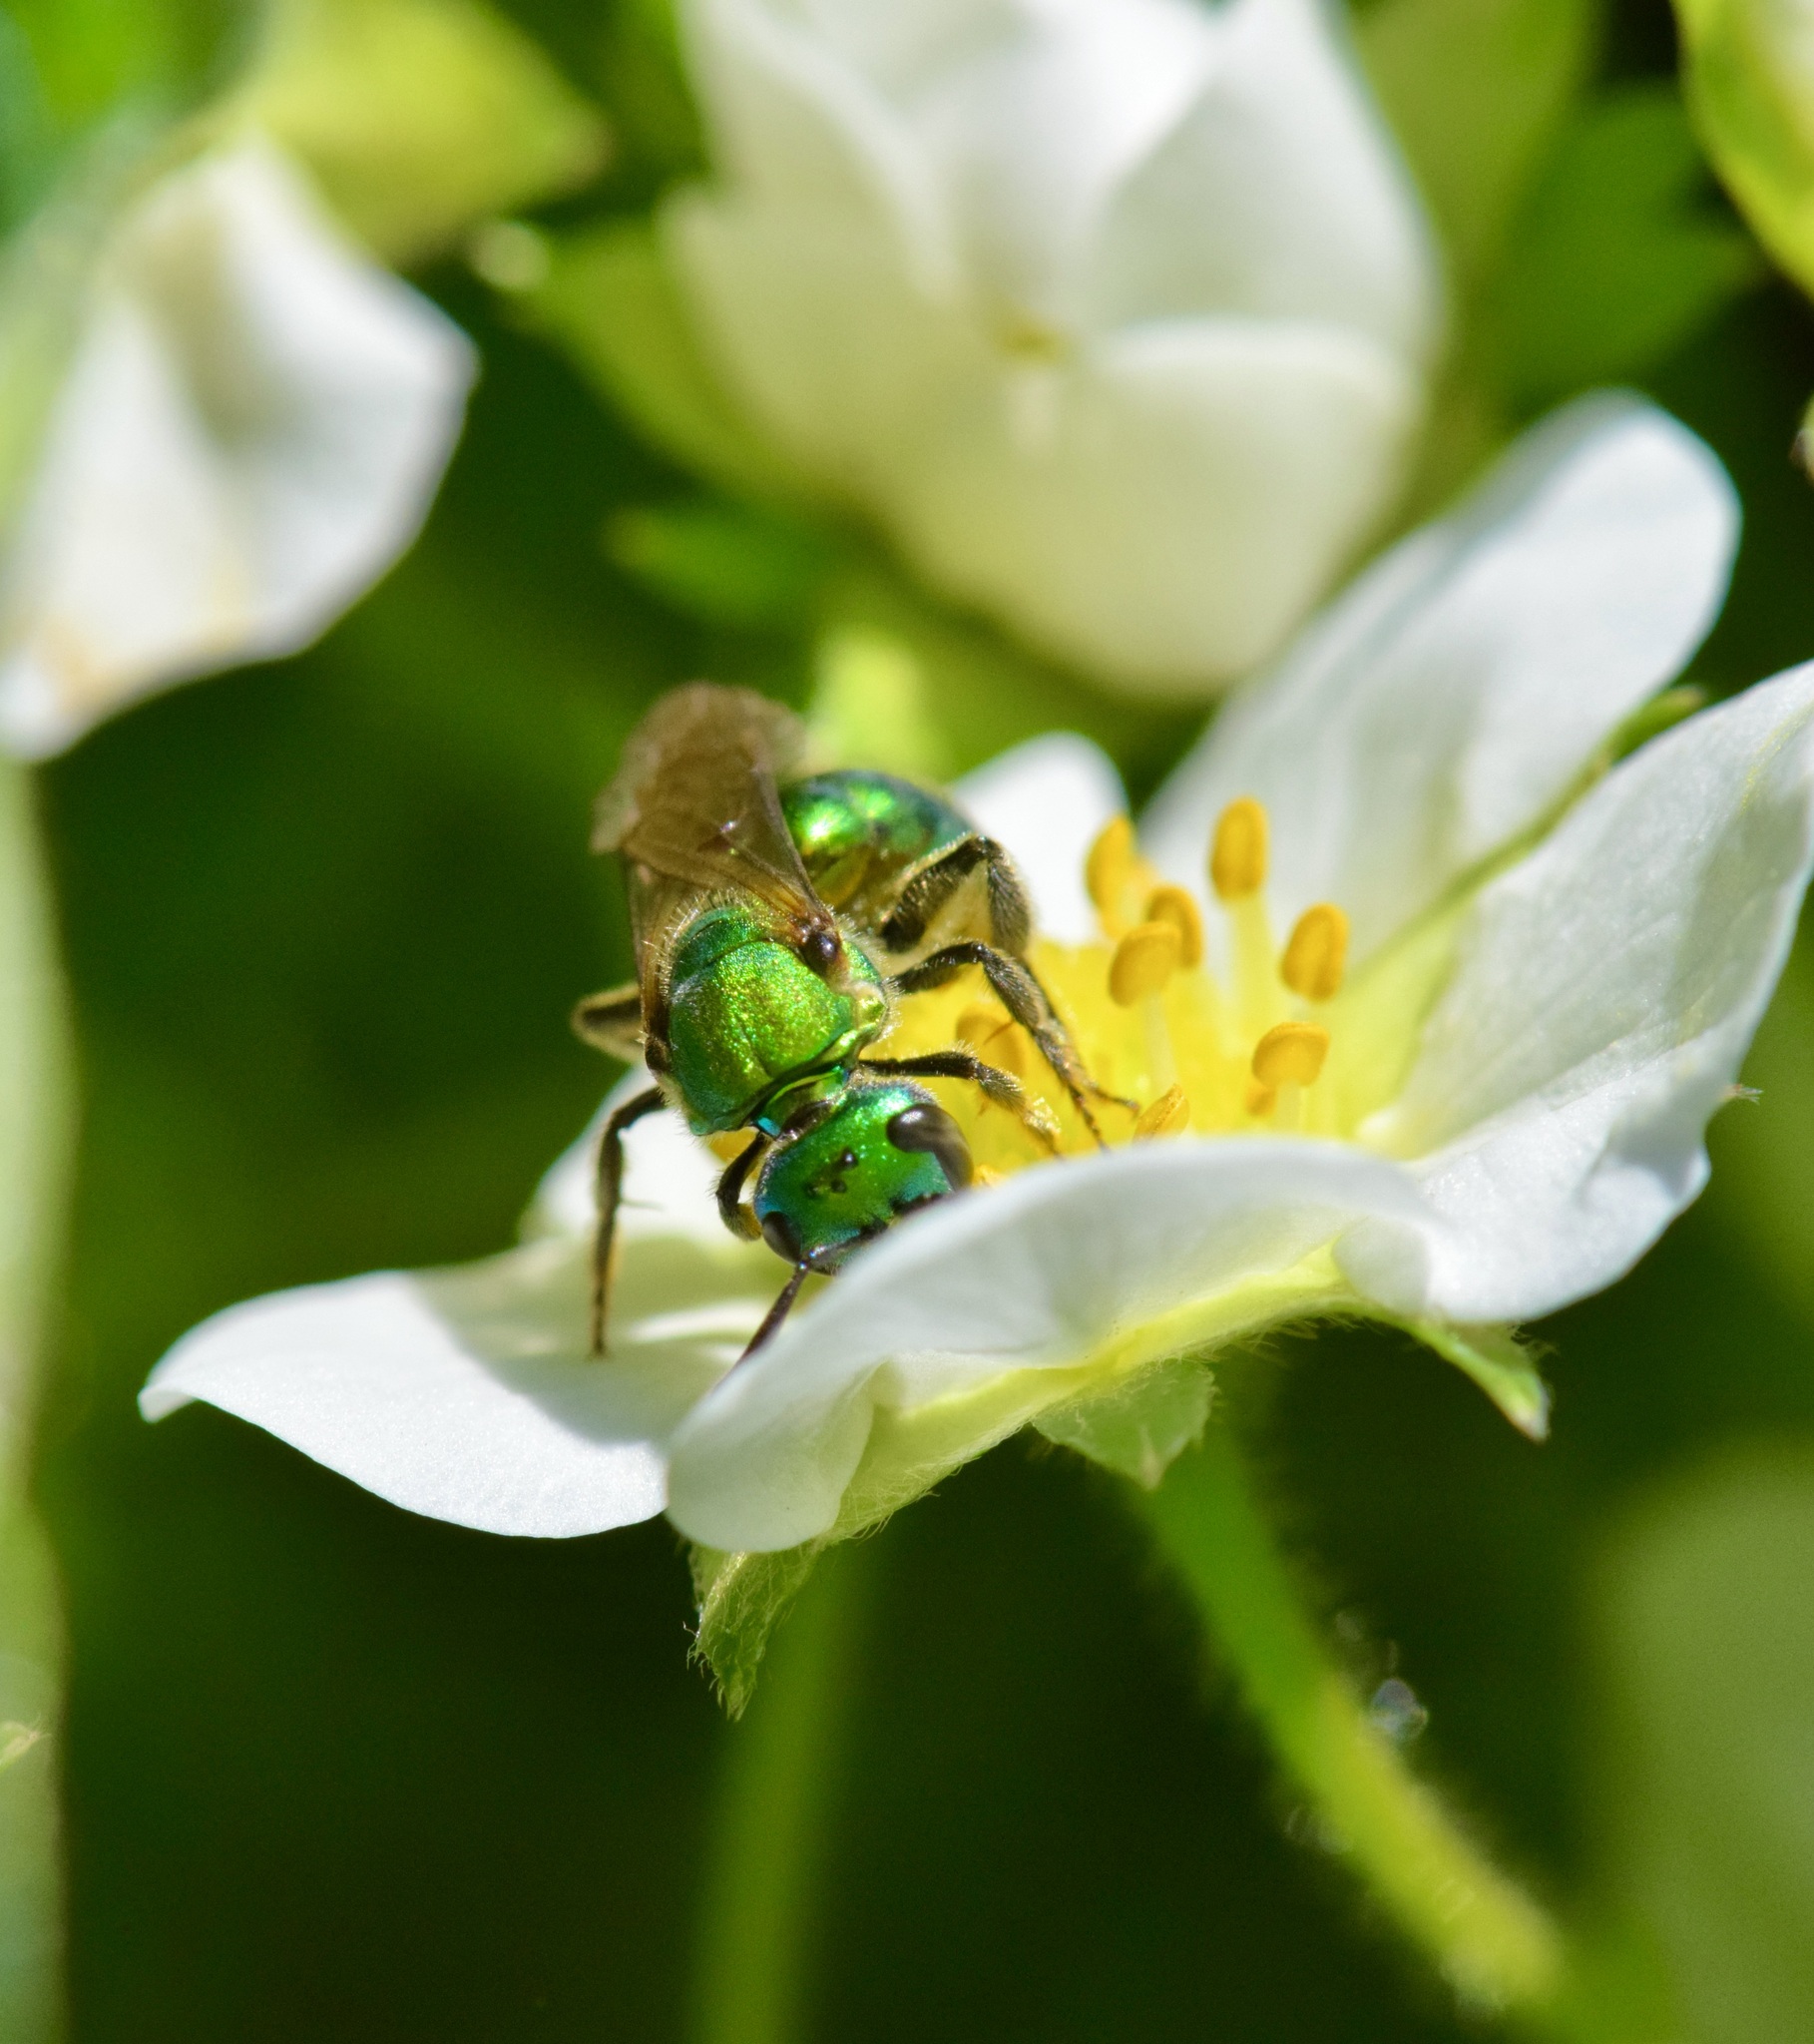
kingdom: Animalia
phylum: Arthropoda
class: Insecta
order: Hymenoptera
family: Halictidae
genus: Augochlora
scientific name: Augochlora pura
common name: Pure green sweat bee
